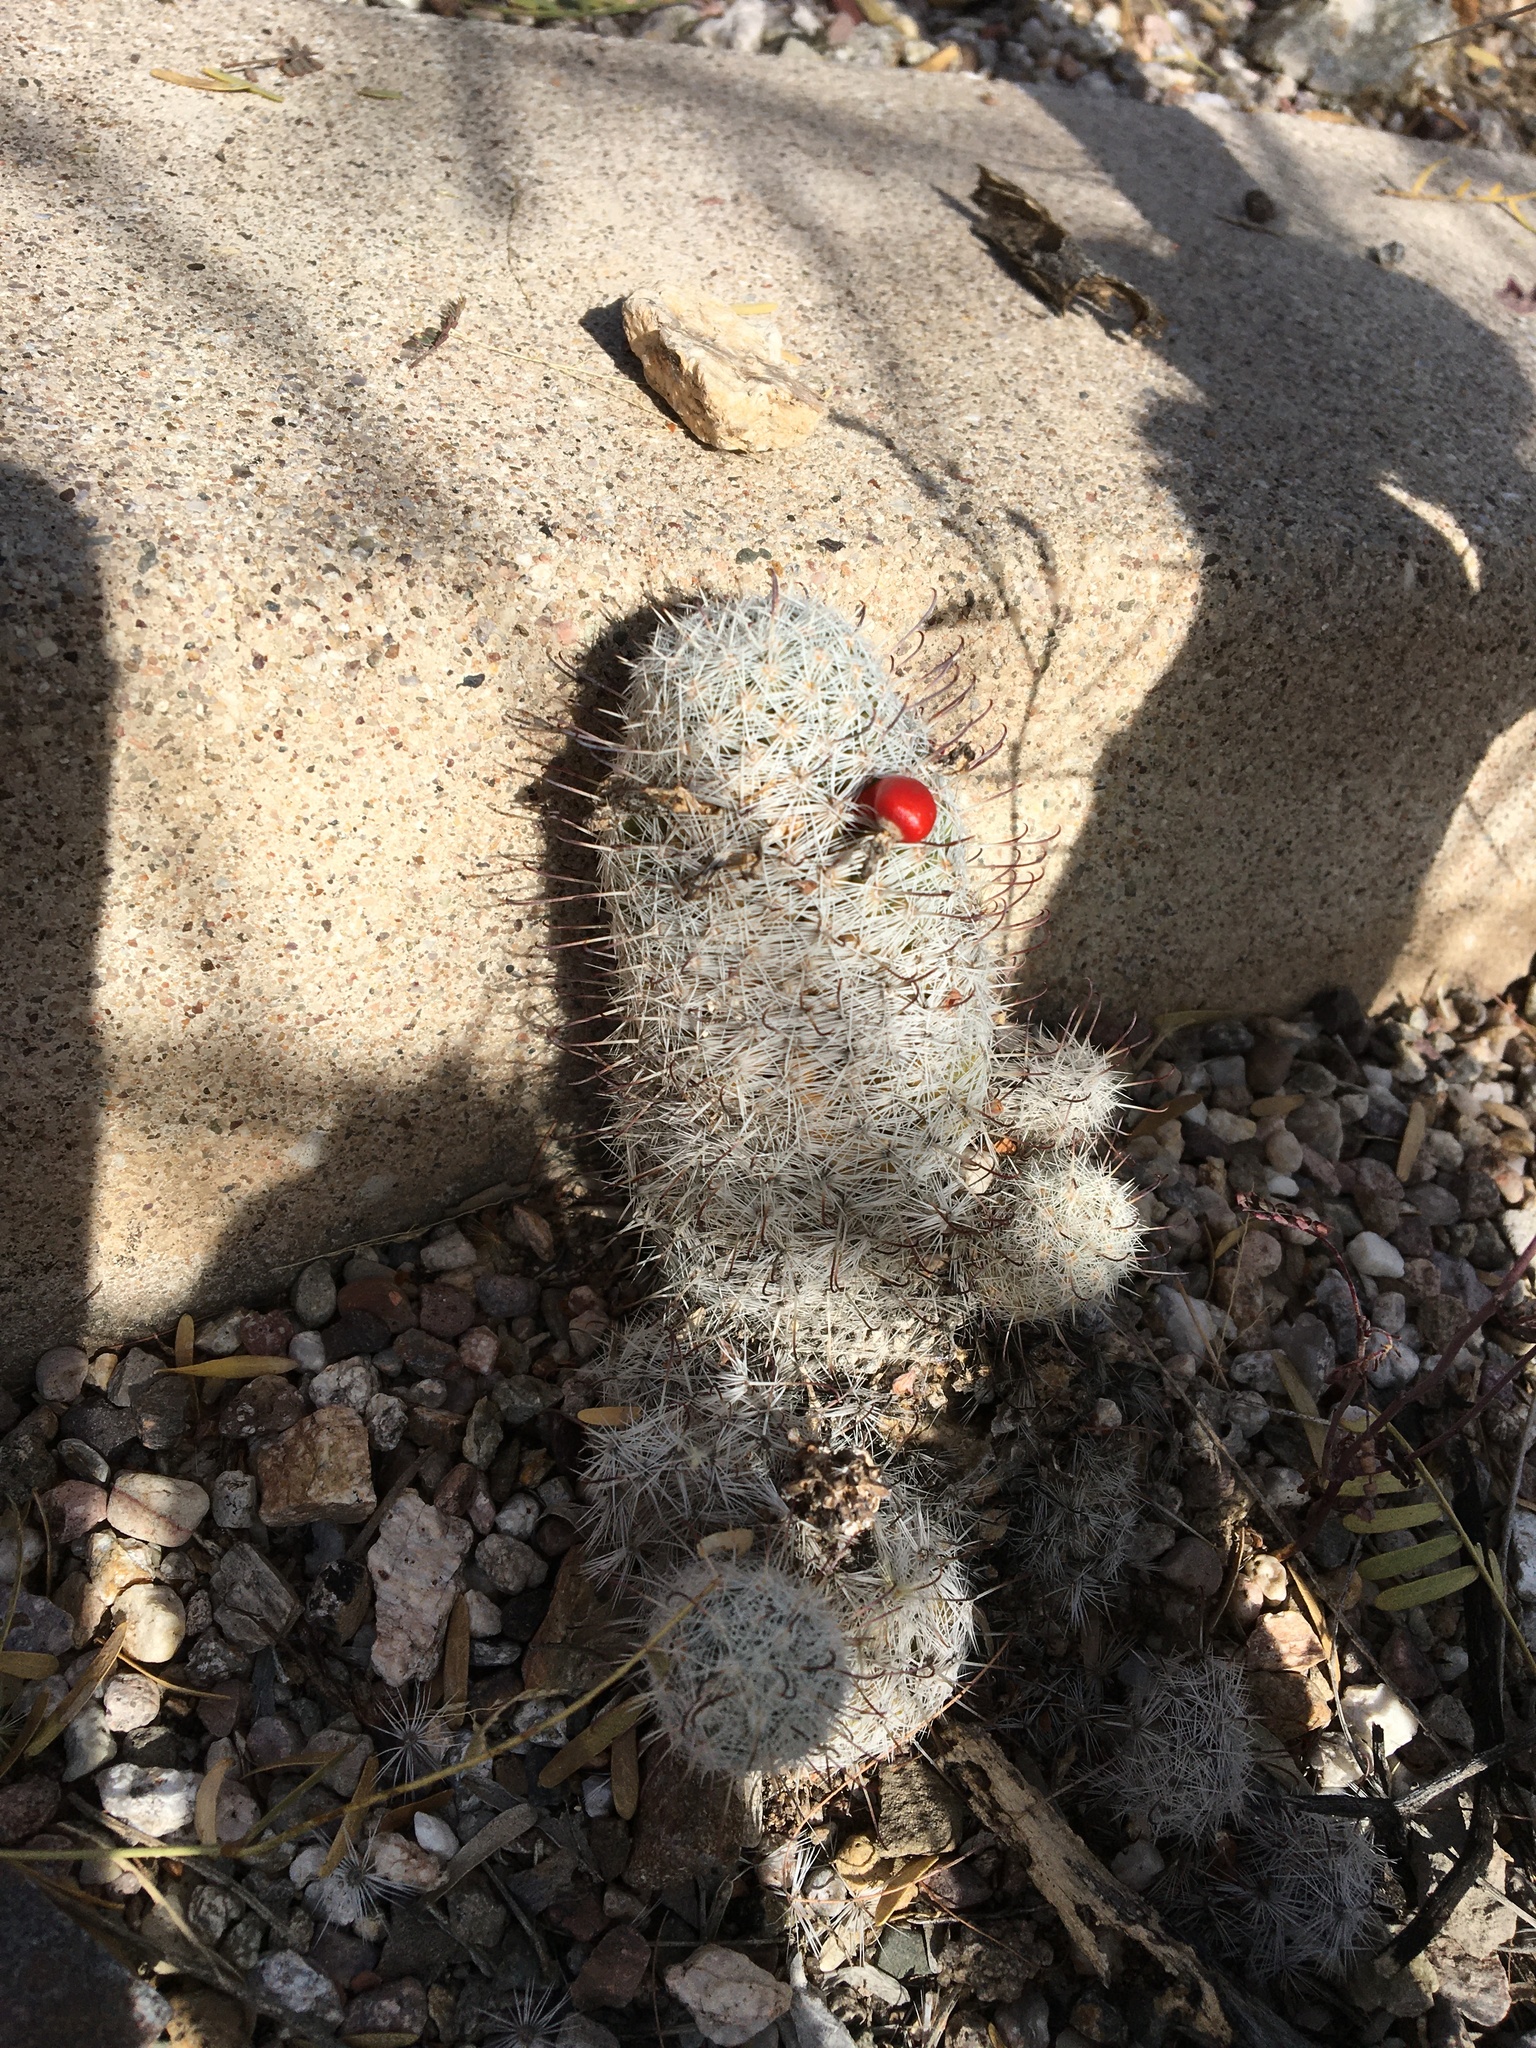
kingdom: Plantae
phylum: Tracheophyta
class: Magnoliopsida
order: Caryophyllales
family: Cactaceae
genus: Cochemiea
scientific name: Cochemiea grahamii
